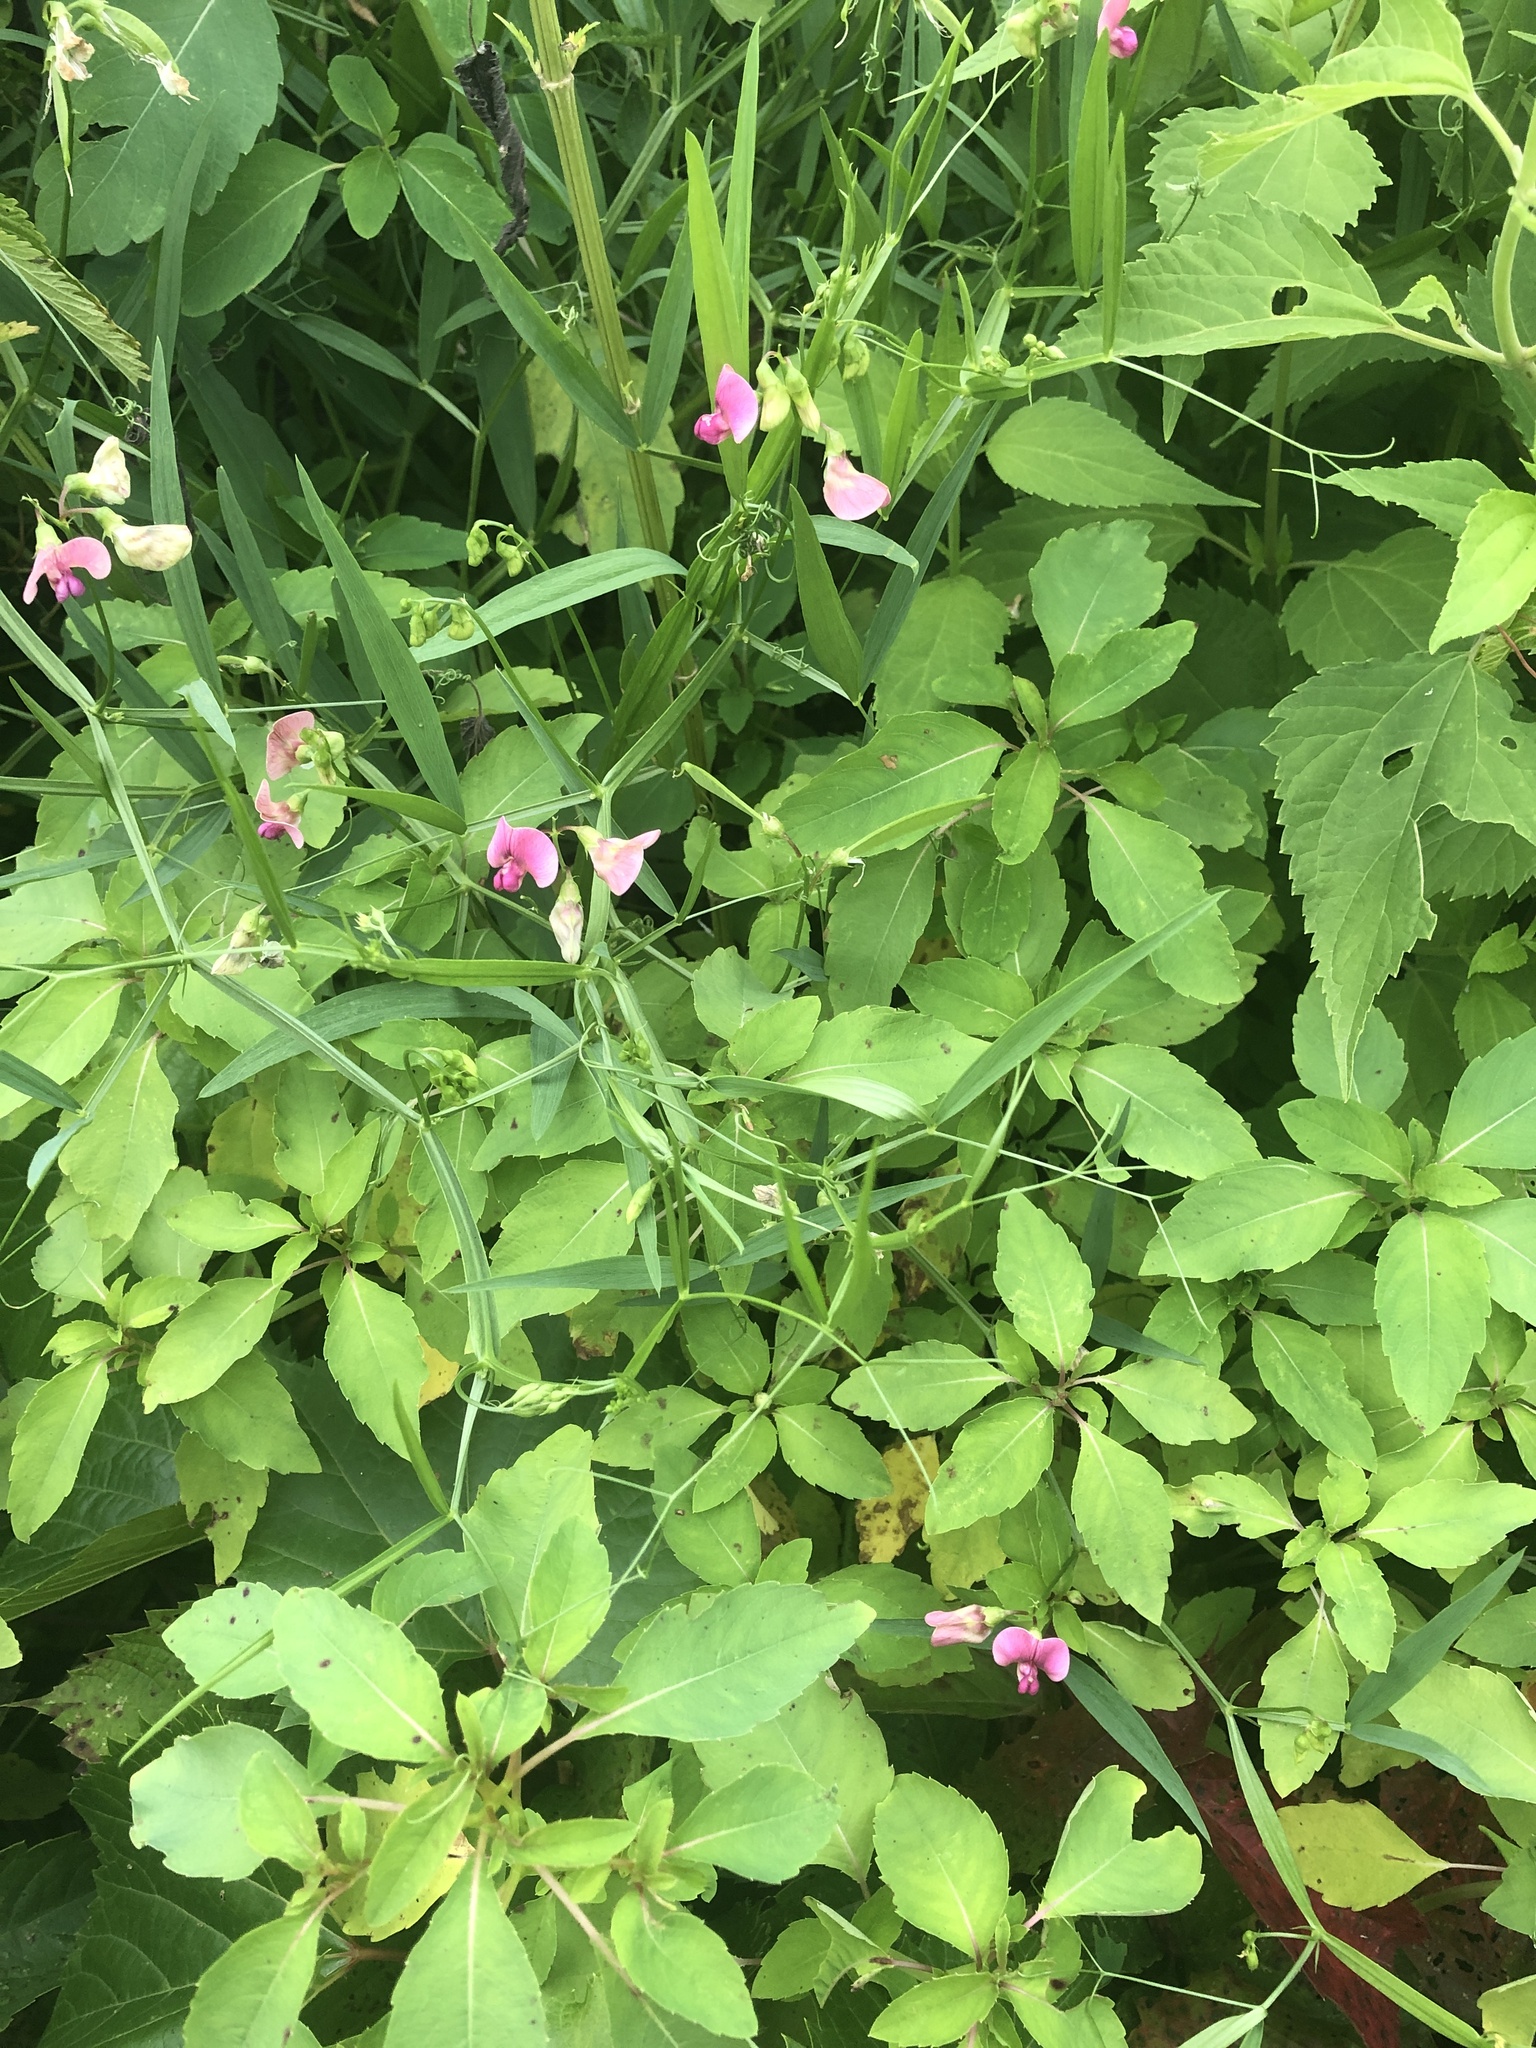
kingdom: Plantae
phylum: Tracheophyta
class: Magnoliopsida
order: Fabales
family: Fabaceae
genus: Lathyrus
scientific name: Lathyrus sylvestris
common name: Flat pea
